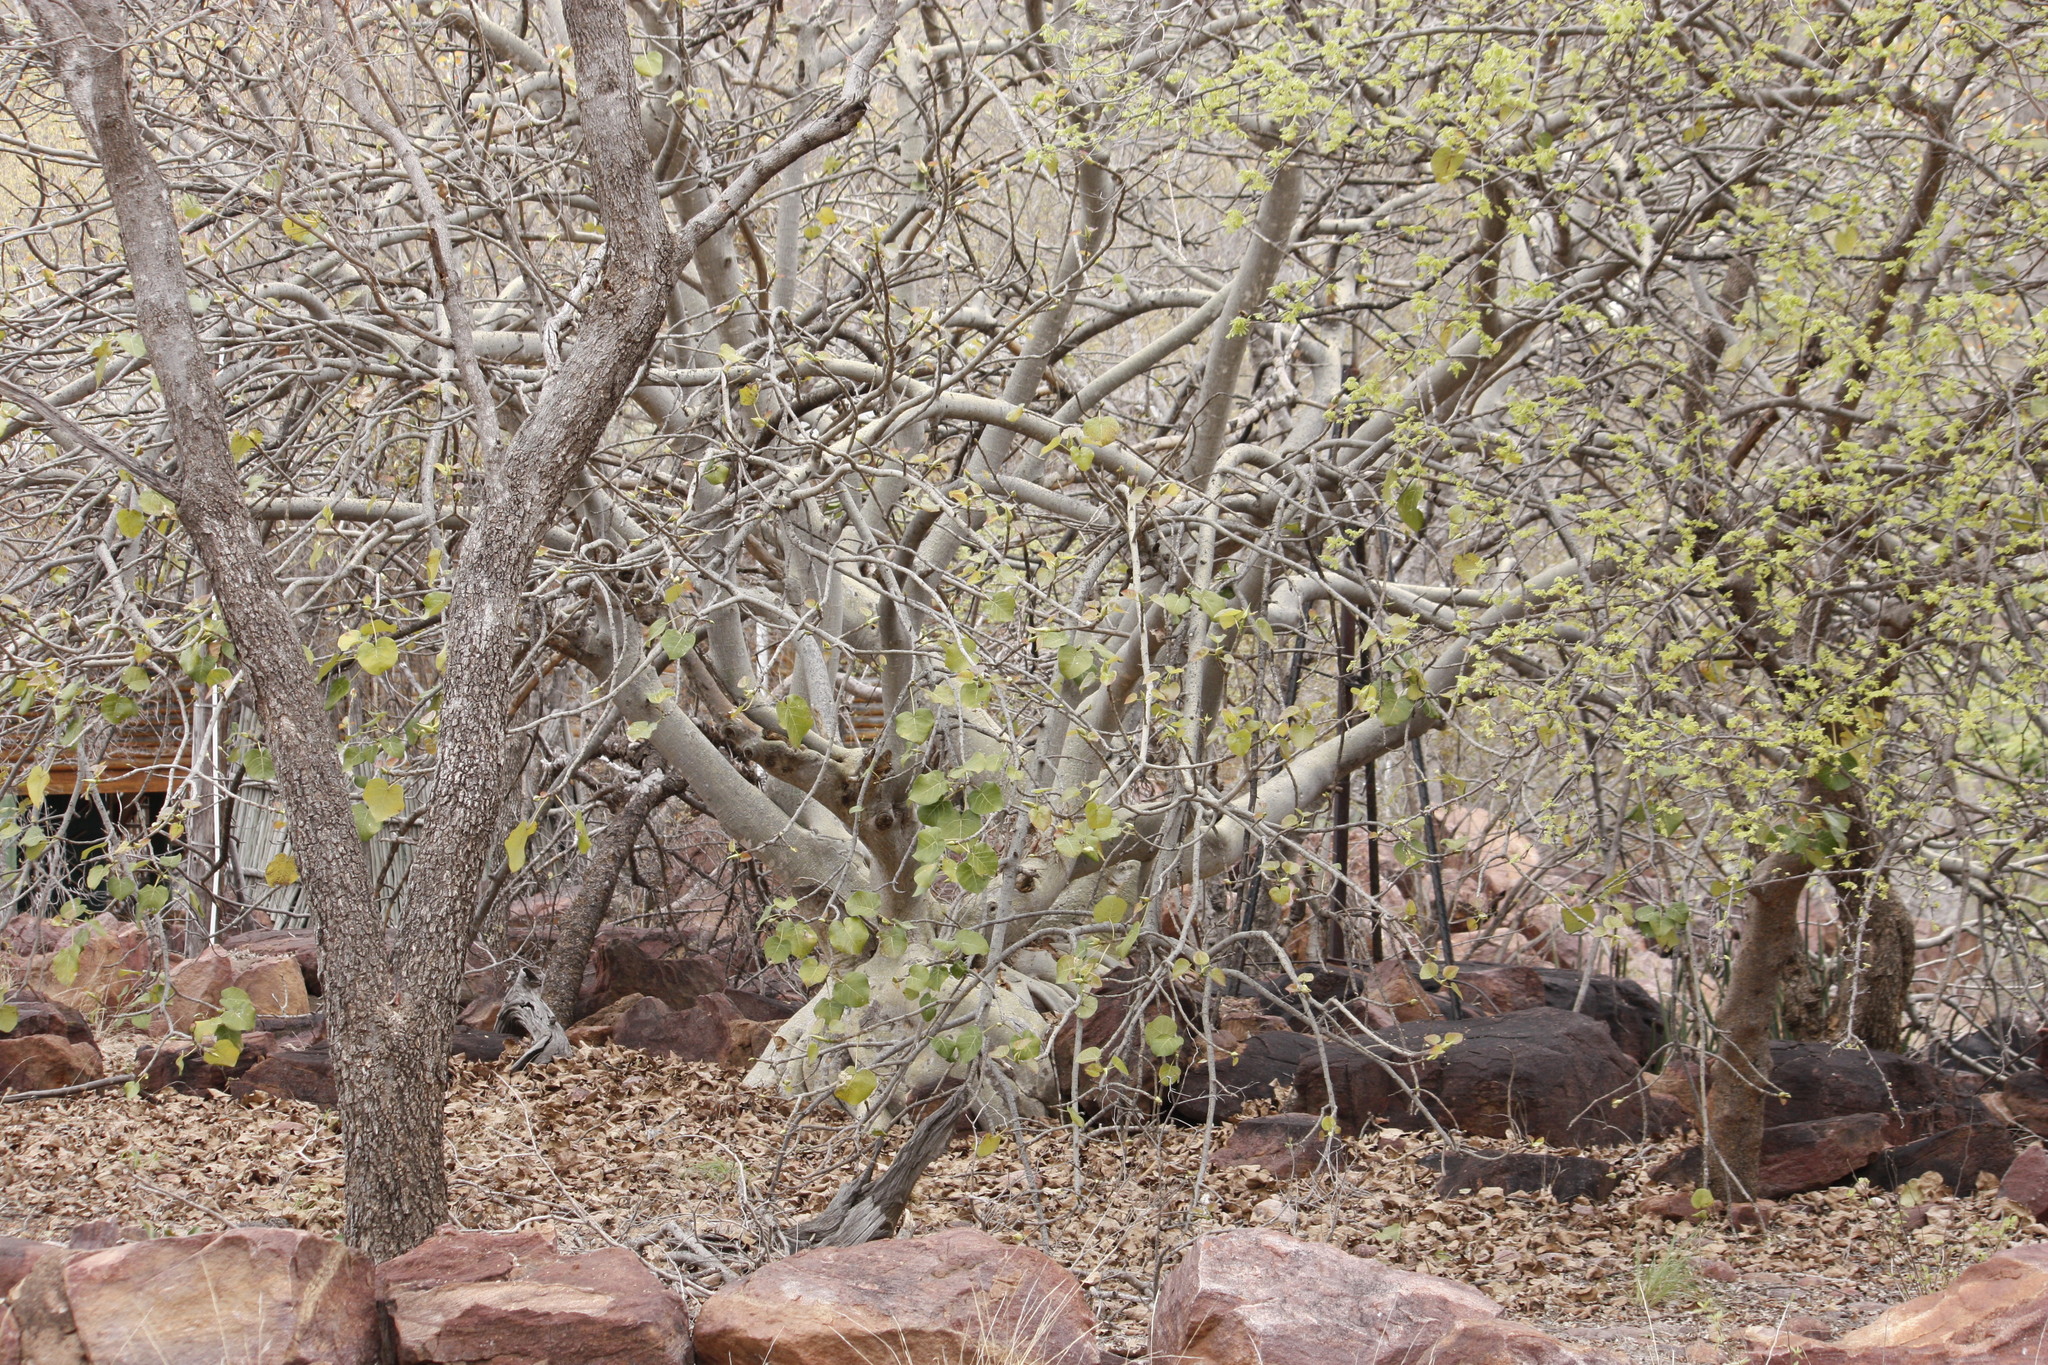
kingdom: Plantae
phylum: Tracheophyta
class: Magnoliopsida
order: Rosales
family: Moraceae
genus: Ficus
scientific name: Ficus abutilifolia
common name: Large-leaved rock fig
